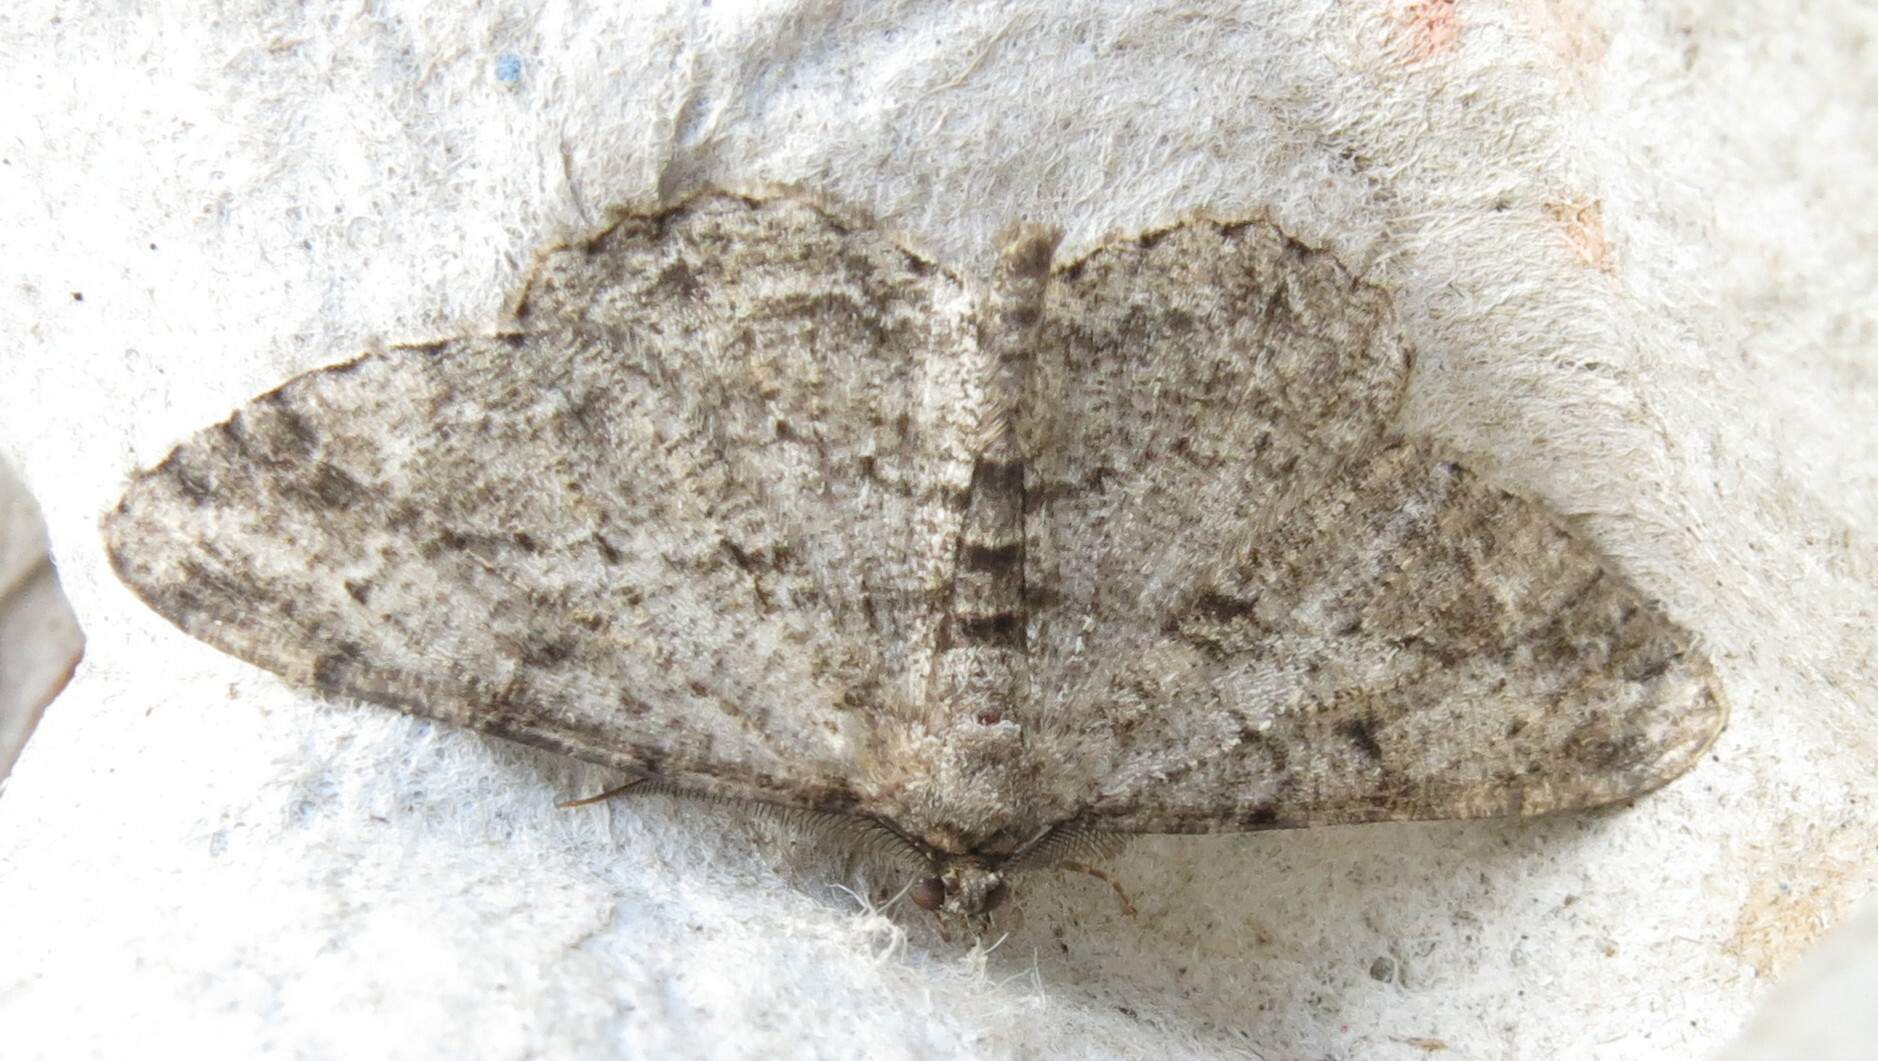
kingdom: Animalia
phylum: Arthropoda
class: Insecta
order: Lepidoptera
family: Geometridae
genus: Peribatodes
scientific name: Peribatodes rhomboidaria
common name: Willow beauty
